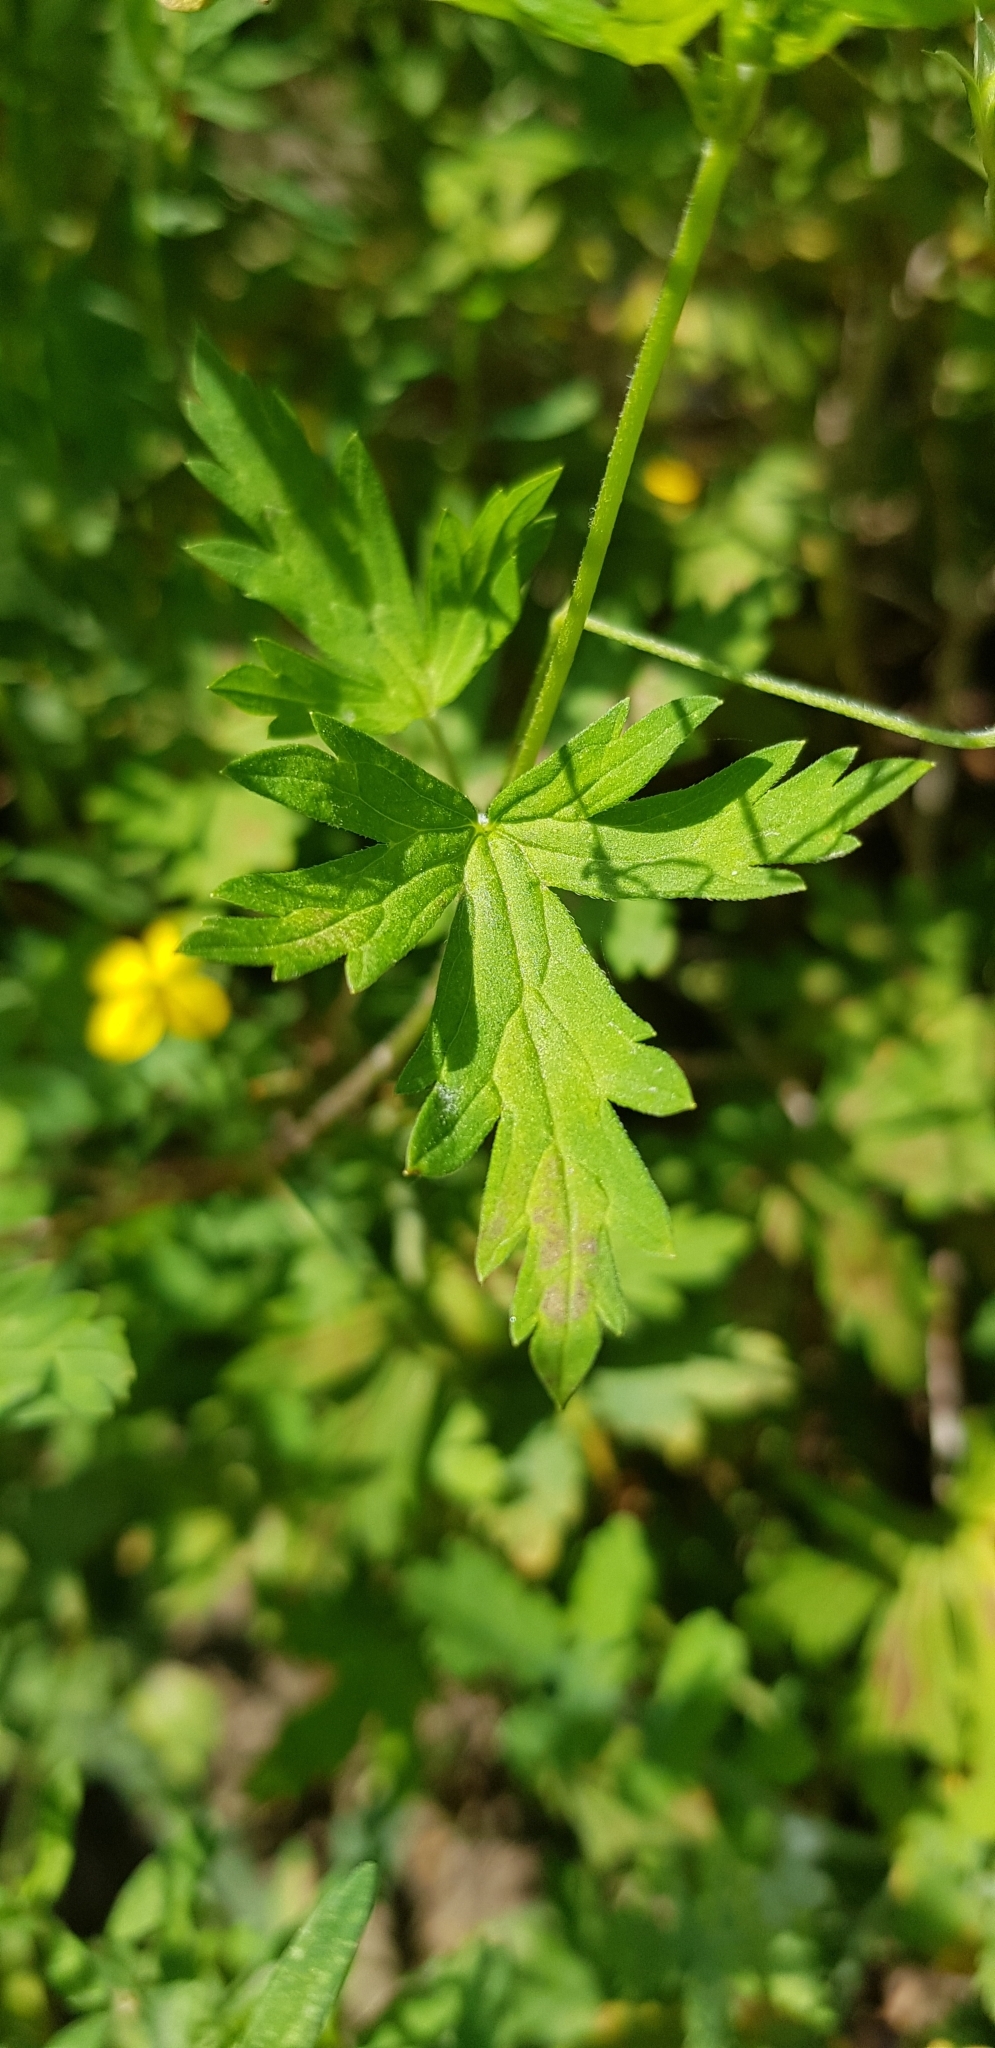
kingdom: Plantae
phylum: Tracheophyta
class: Magnoliopsida
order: Geraniales
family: Geraniaceae
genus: Geranium
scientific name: Geranium sibiricum
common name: Siberian crane's-bill
